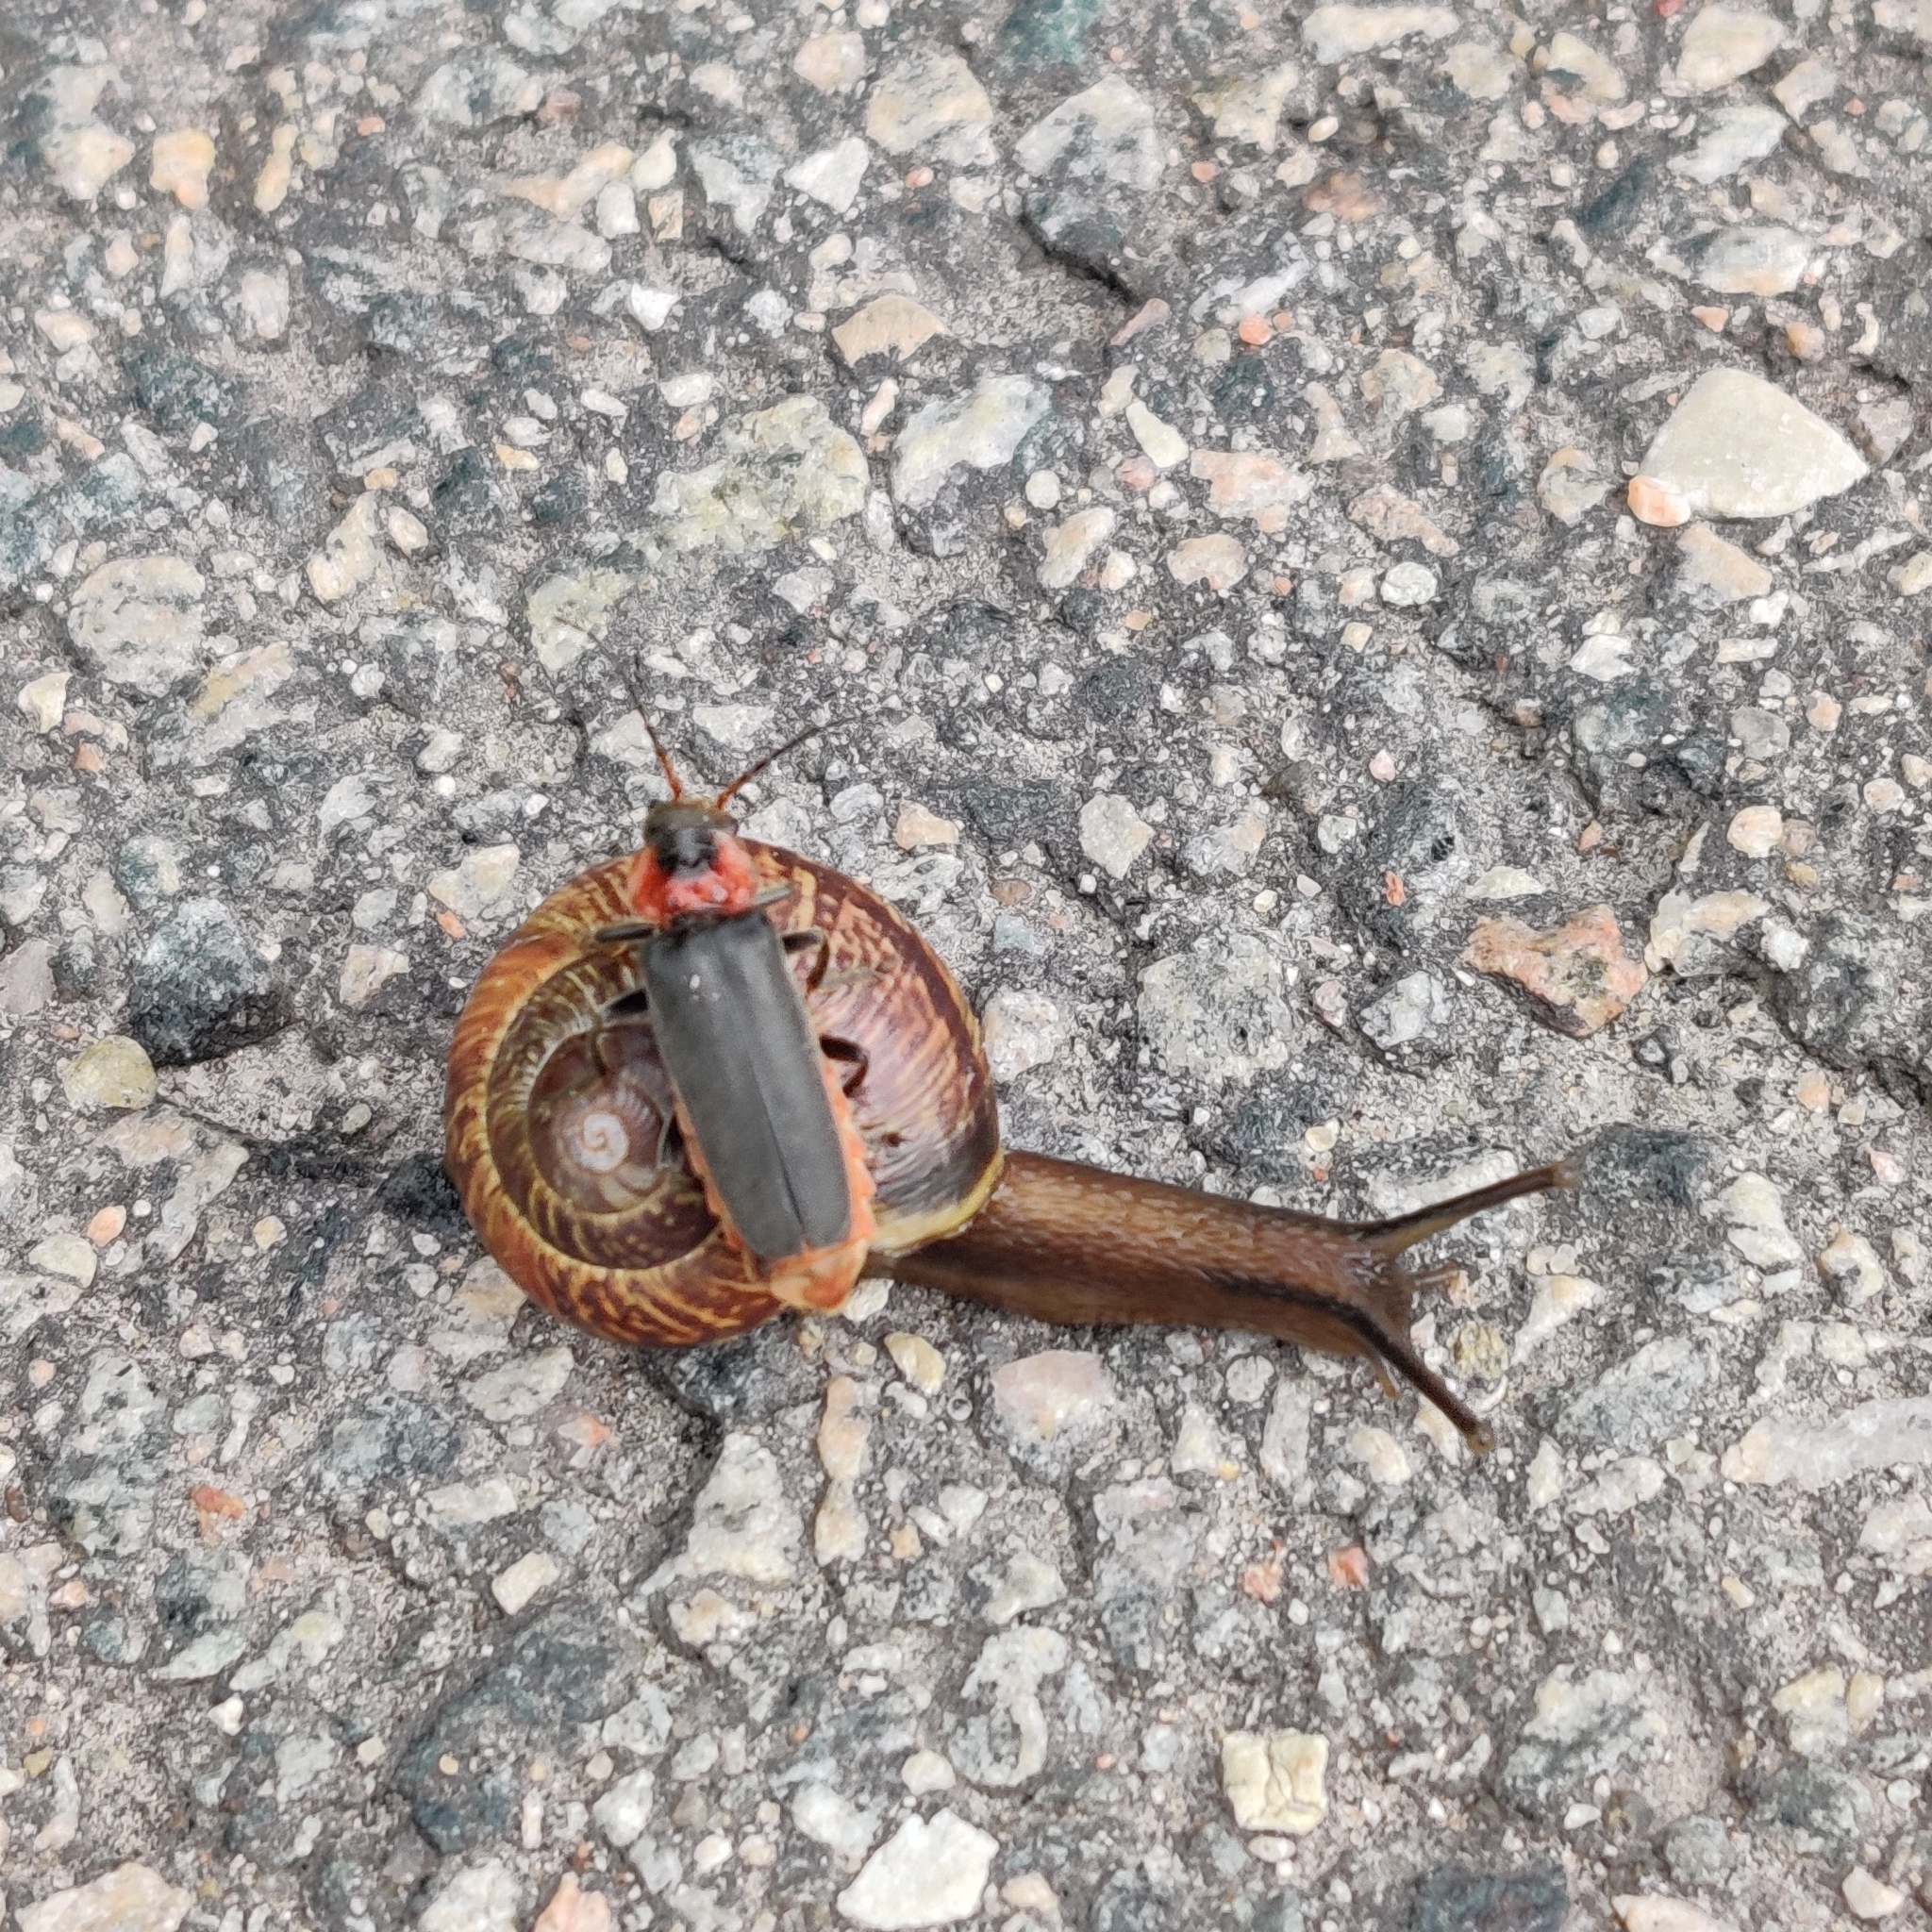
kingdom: Animalia
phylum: Arthropoda
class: Insecta
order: Coleoptera
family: Cantharidae
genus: Cantharis
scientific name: Cantharis fusca
